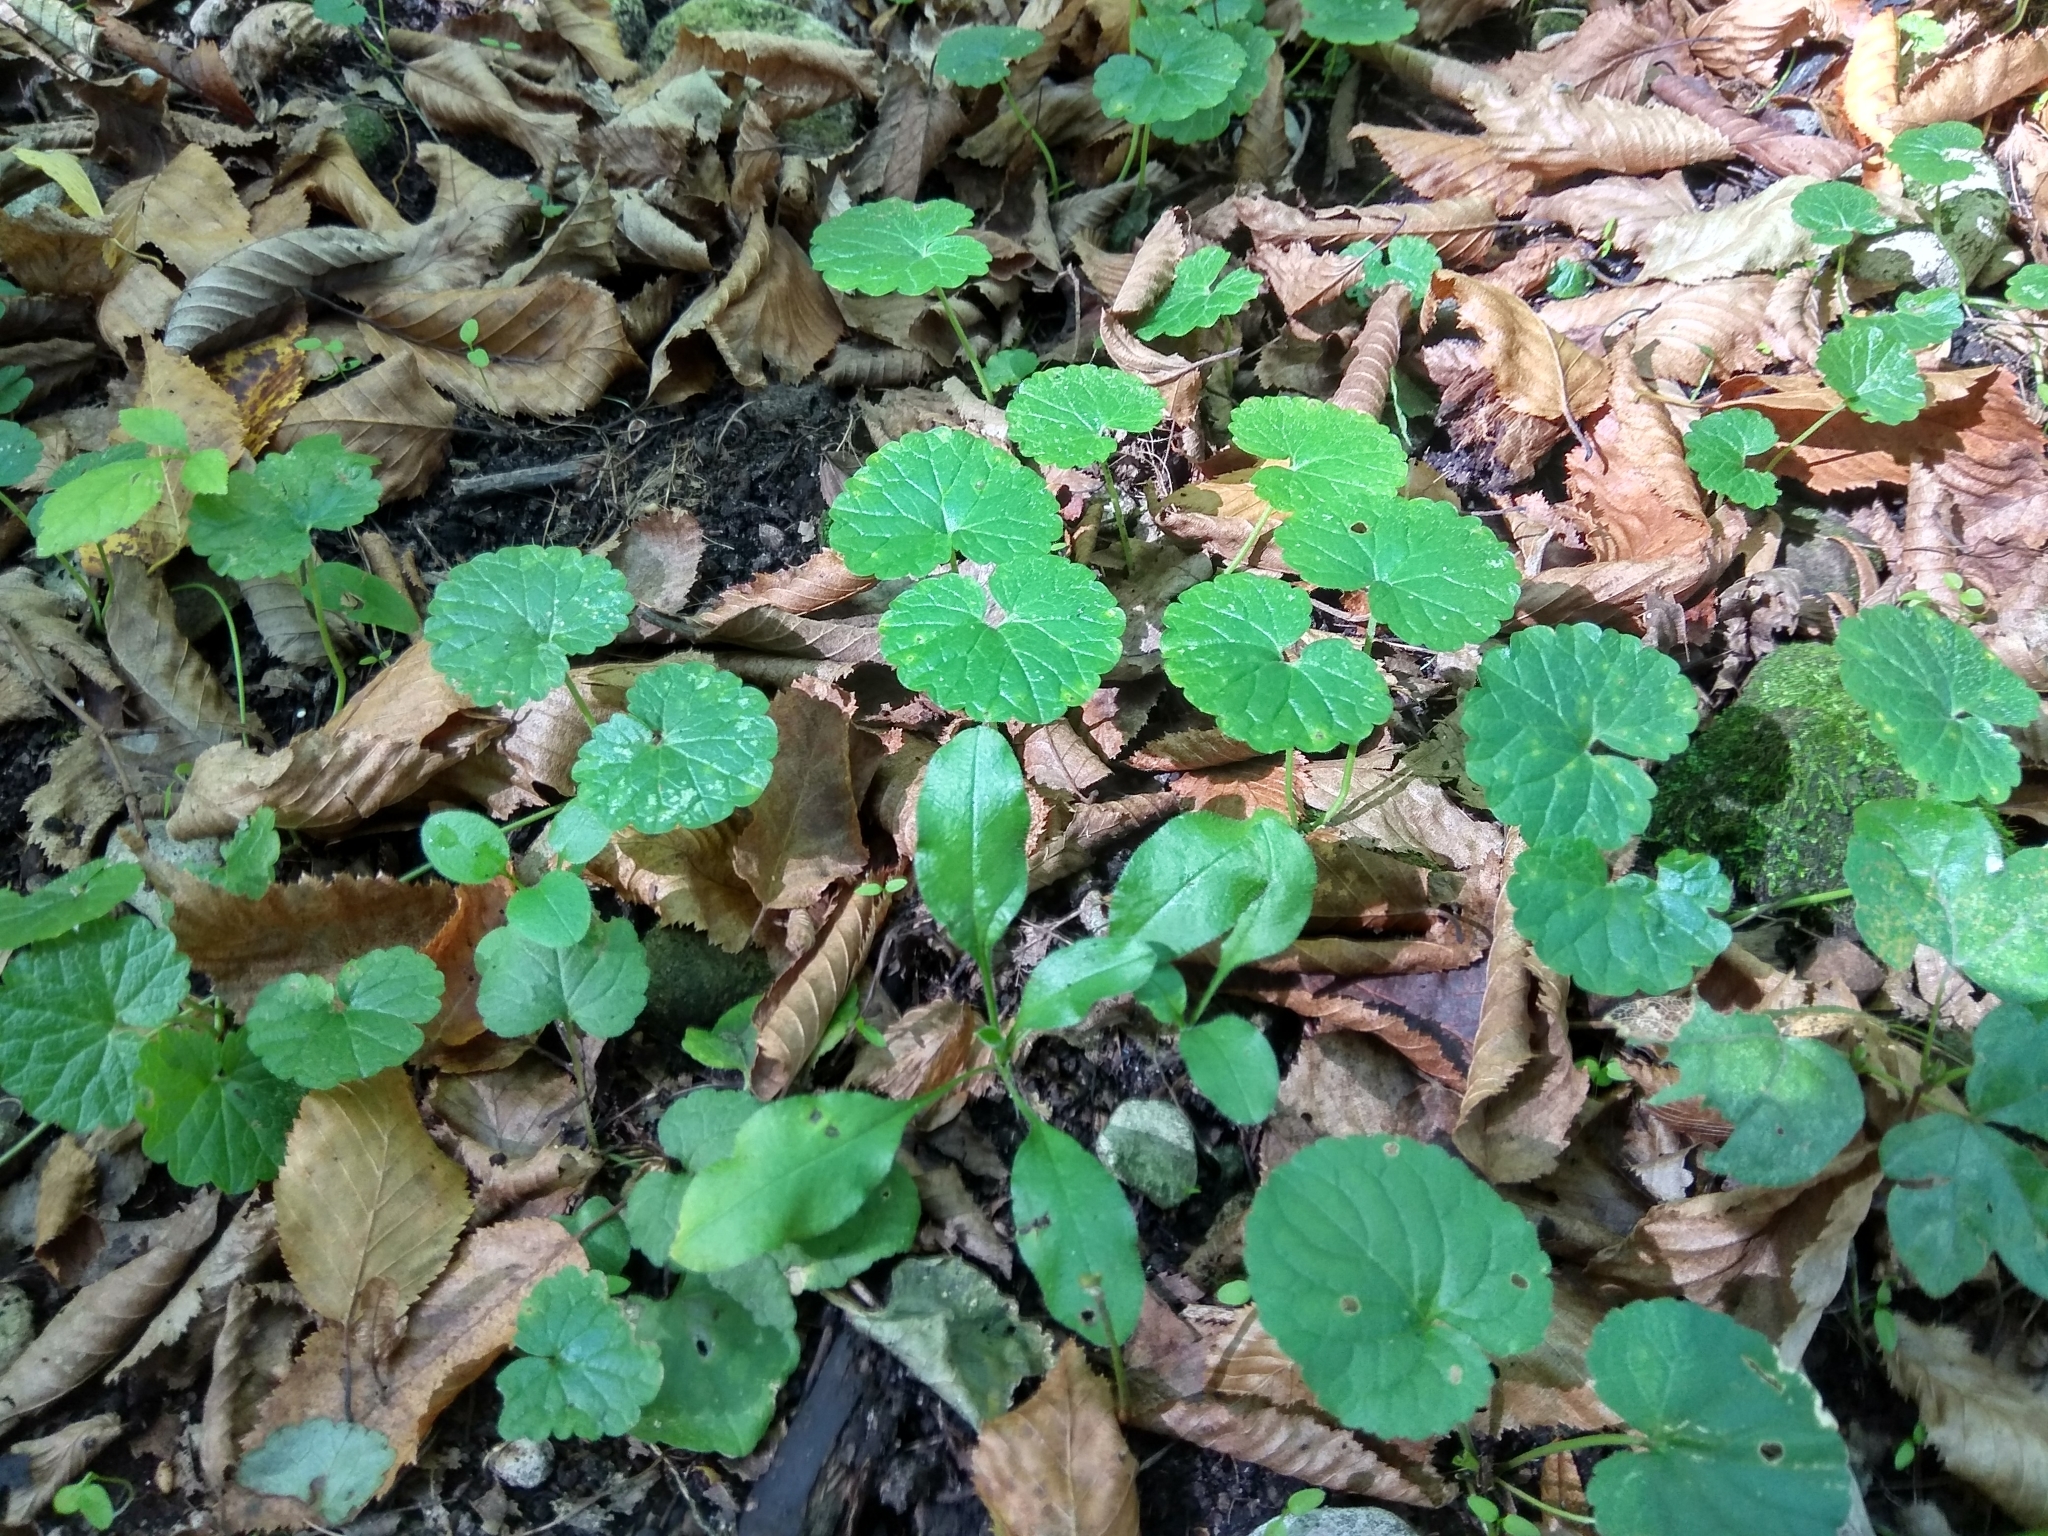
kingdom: Plantae
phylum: Tracheophyta
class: Magnoliopsida
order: Lamiales
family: Lamiaceae
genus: Glechoma
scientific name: Glechoma hederacea
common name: Ground ivy
